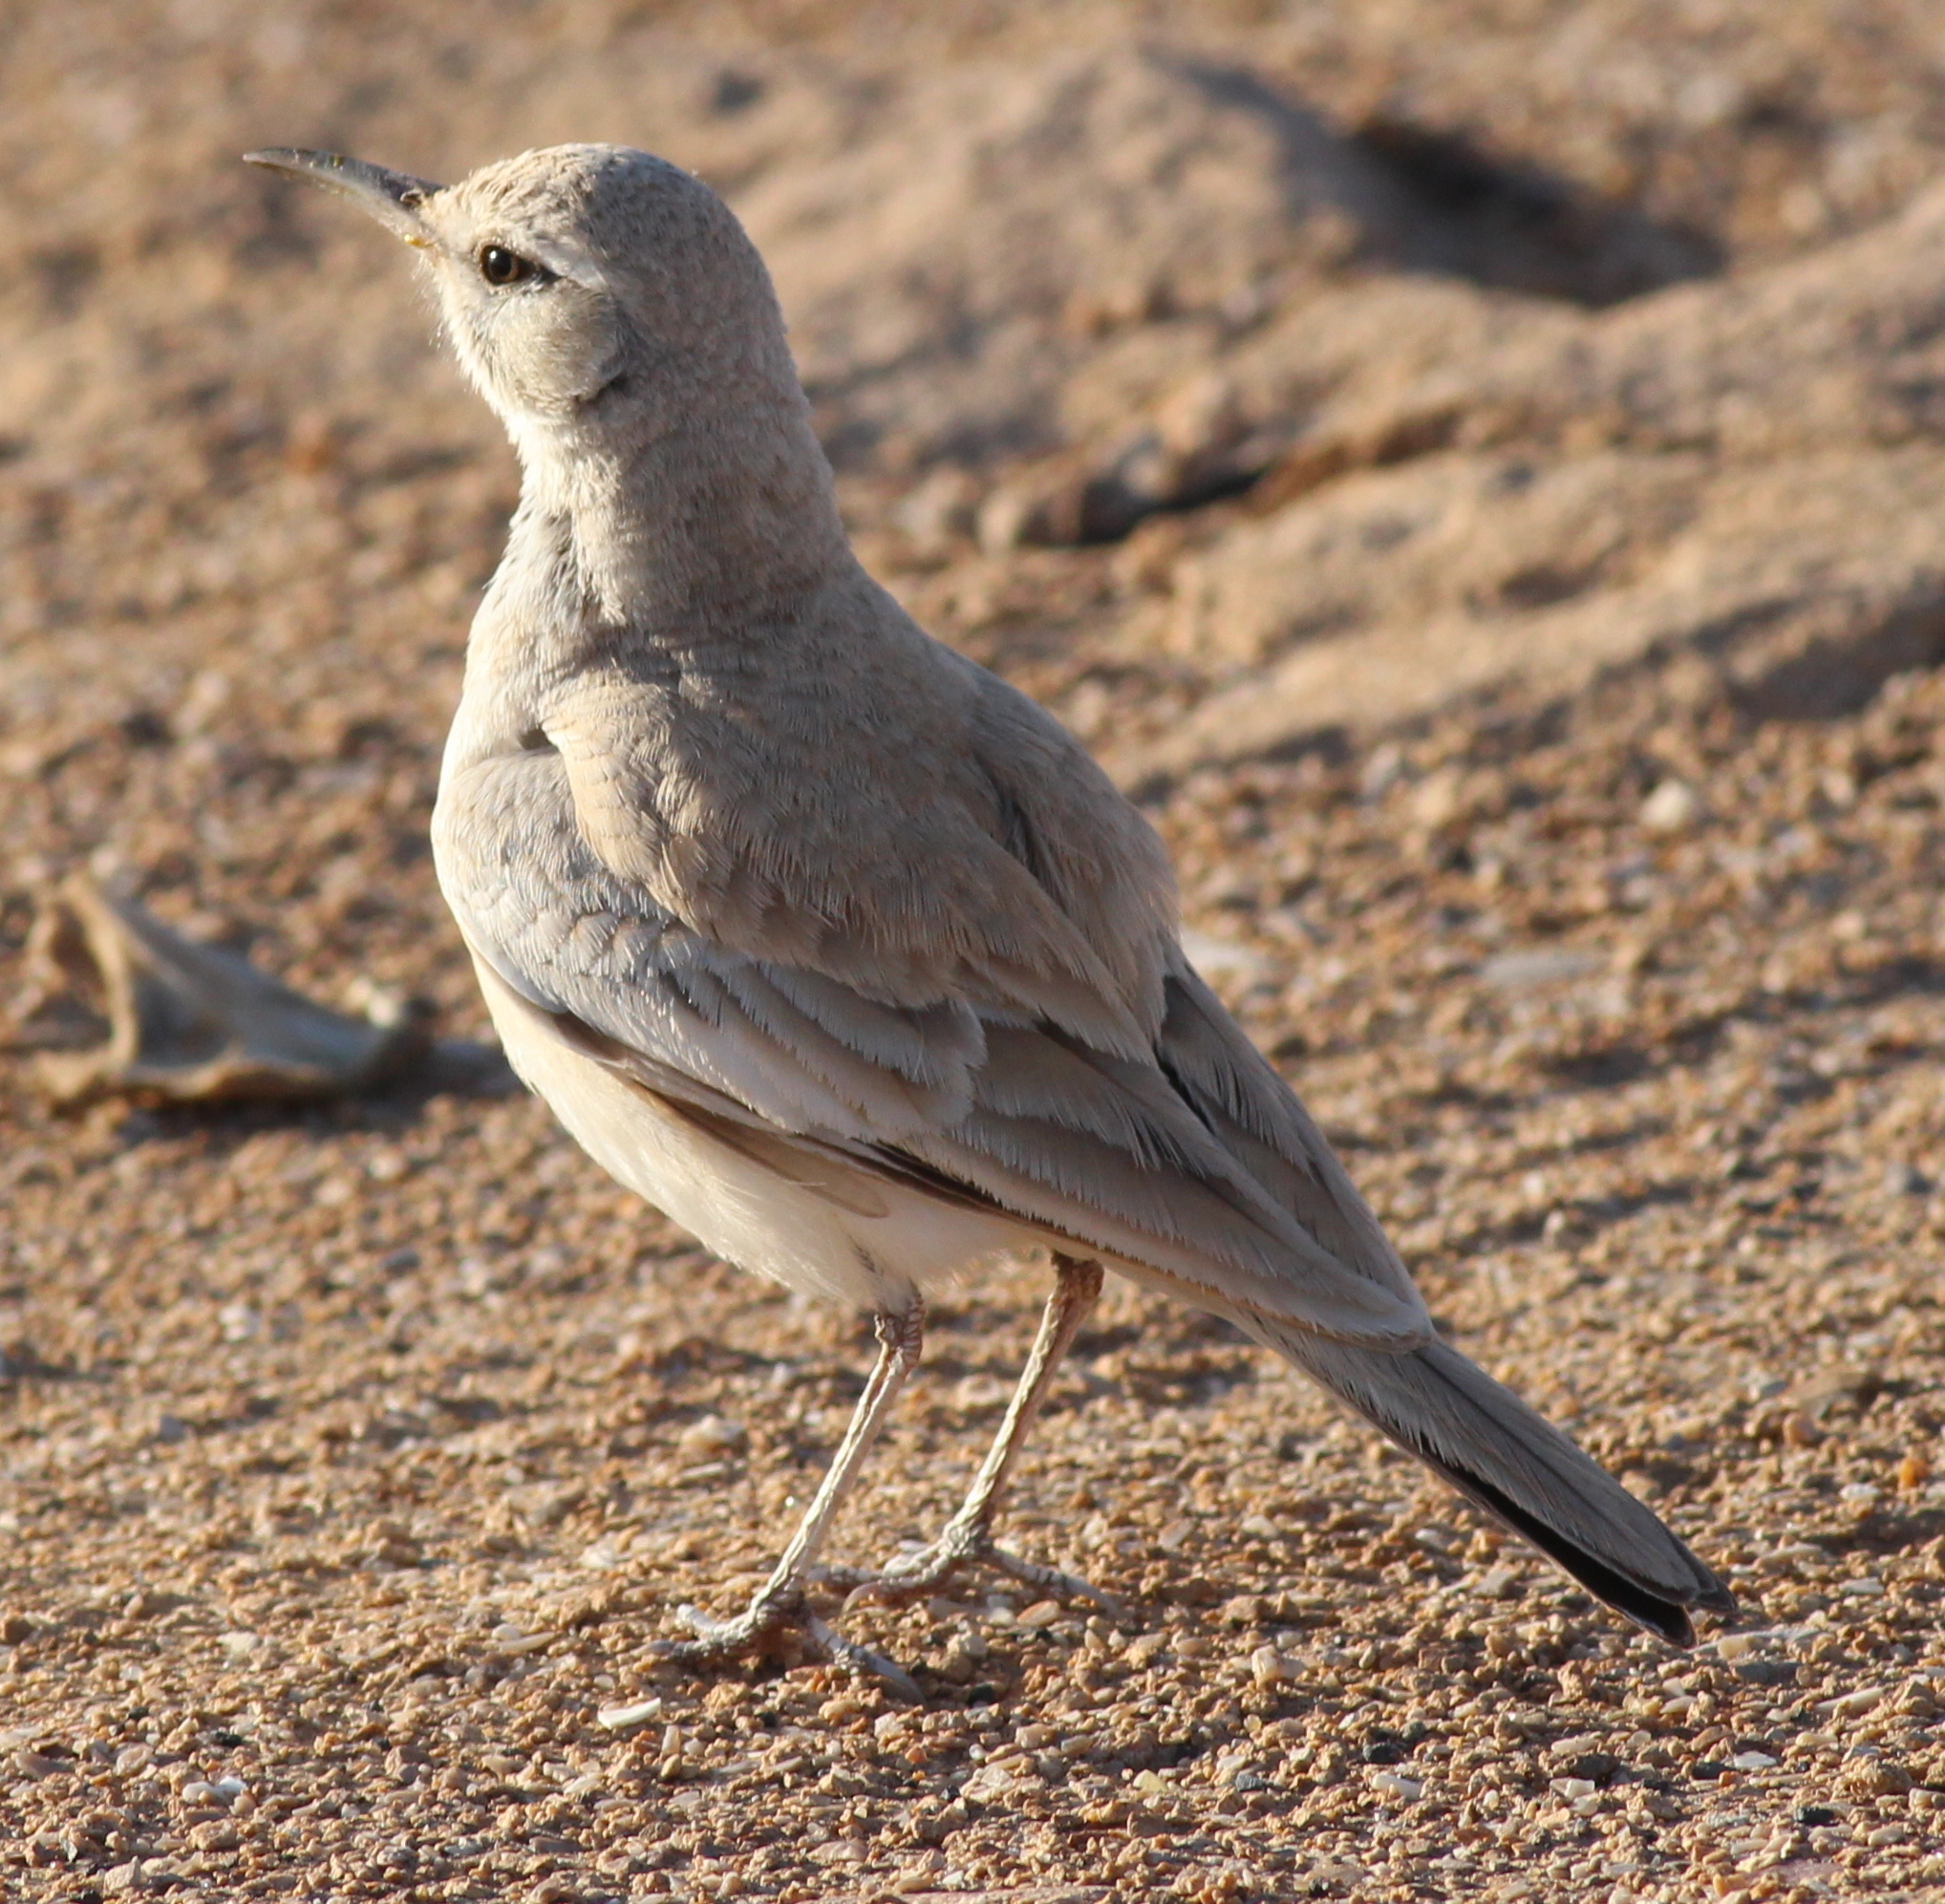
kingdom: Animalia
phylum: Chordata
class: Aves
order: Passeriformes
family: Alaudidae
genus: Alaemon
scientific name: Alaemon alaudipes
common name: Greater hoopoe-lark
